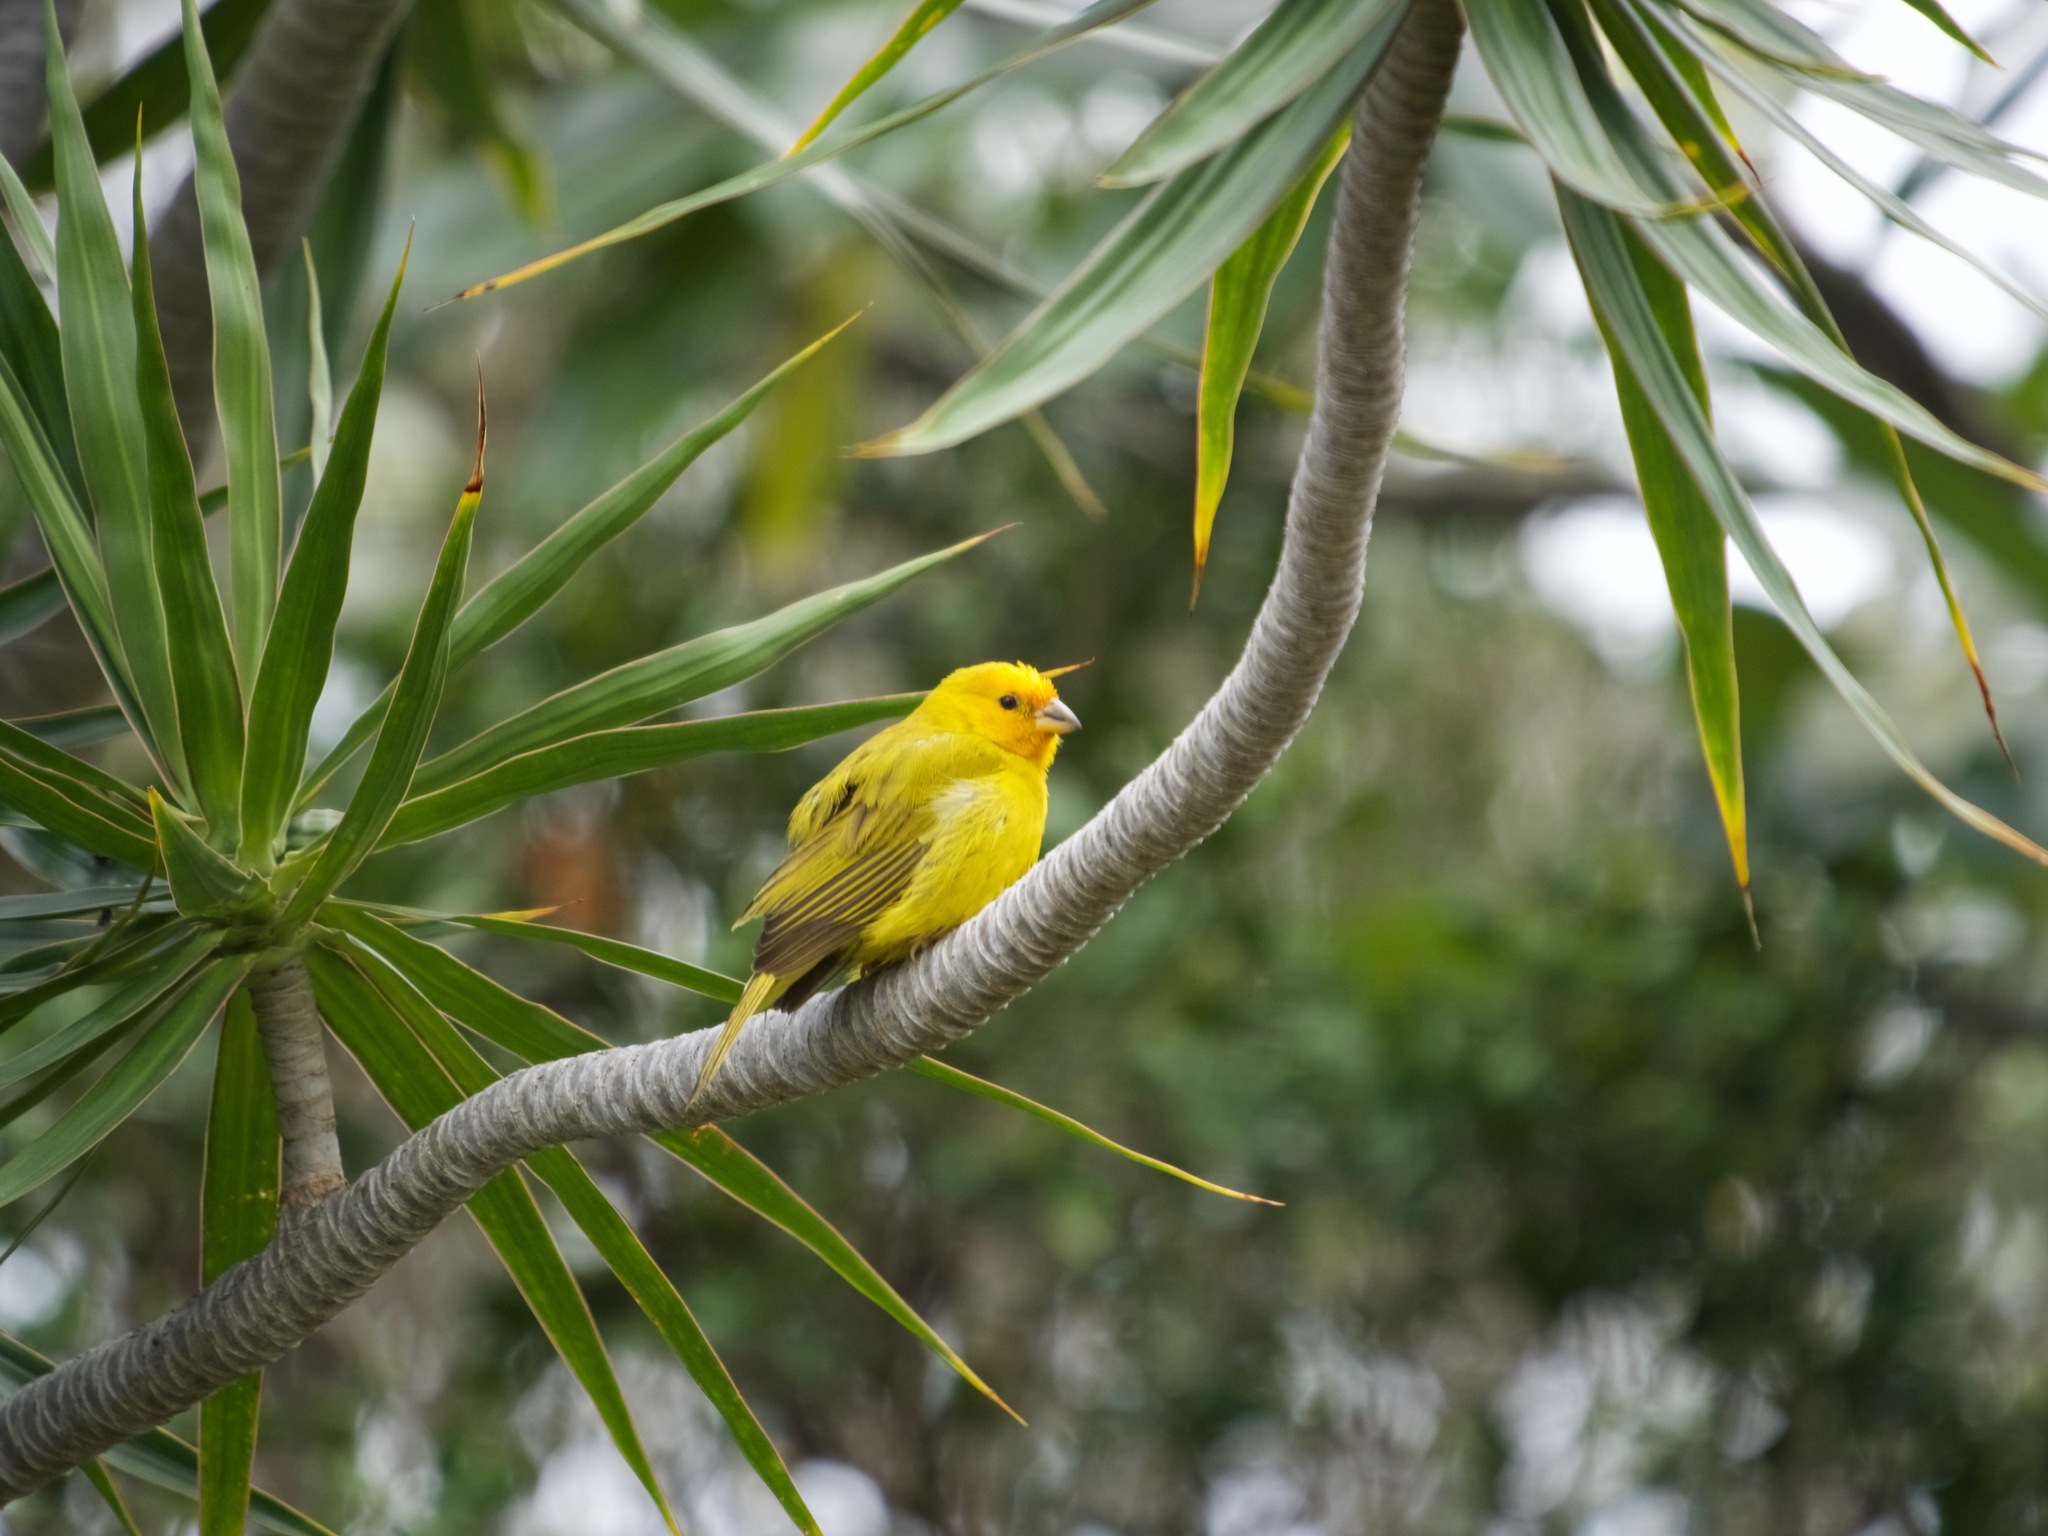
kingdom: Animalia
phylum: Chordata
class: Aves
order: Passeriformes
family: Thraupidae
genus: Sicalis
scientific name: Sicalis flaveola
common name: Saffron finch
